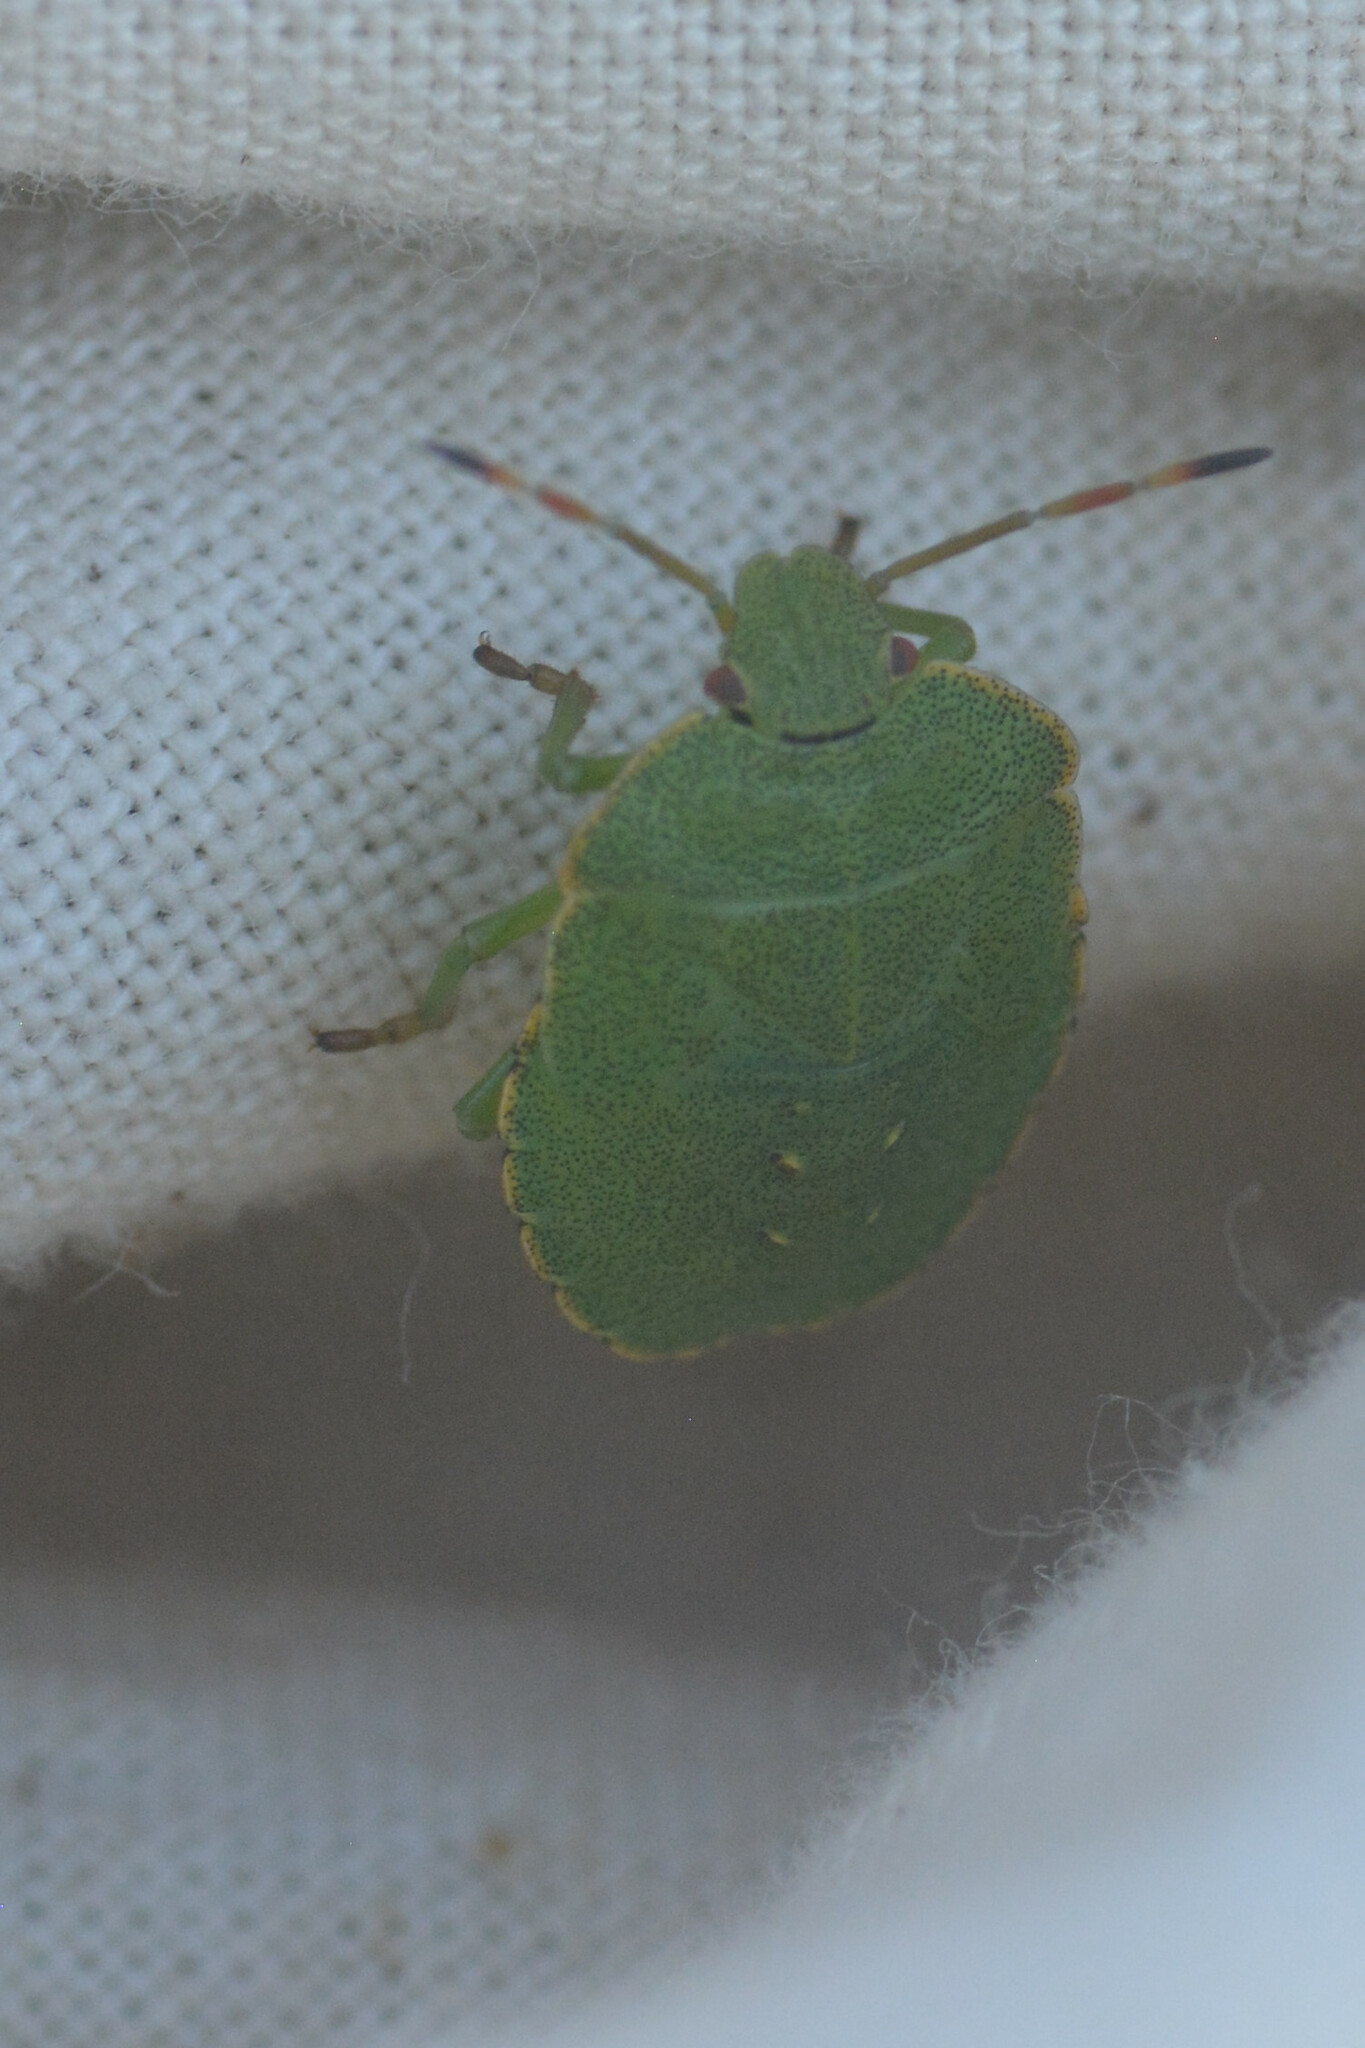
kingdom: Animalia
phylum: Arthropoda
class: Insecta
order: Hemiptera
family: Pentatomidae
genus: Palomena
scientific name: Palomena prasina
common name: Green shieldbug
